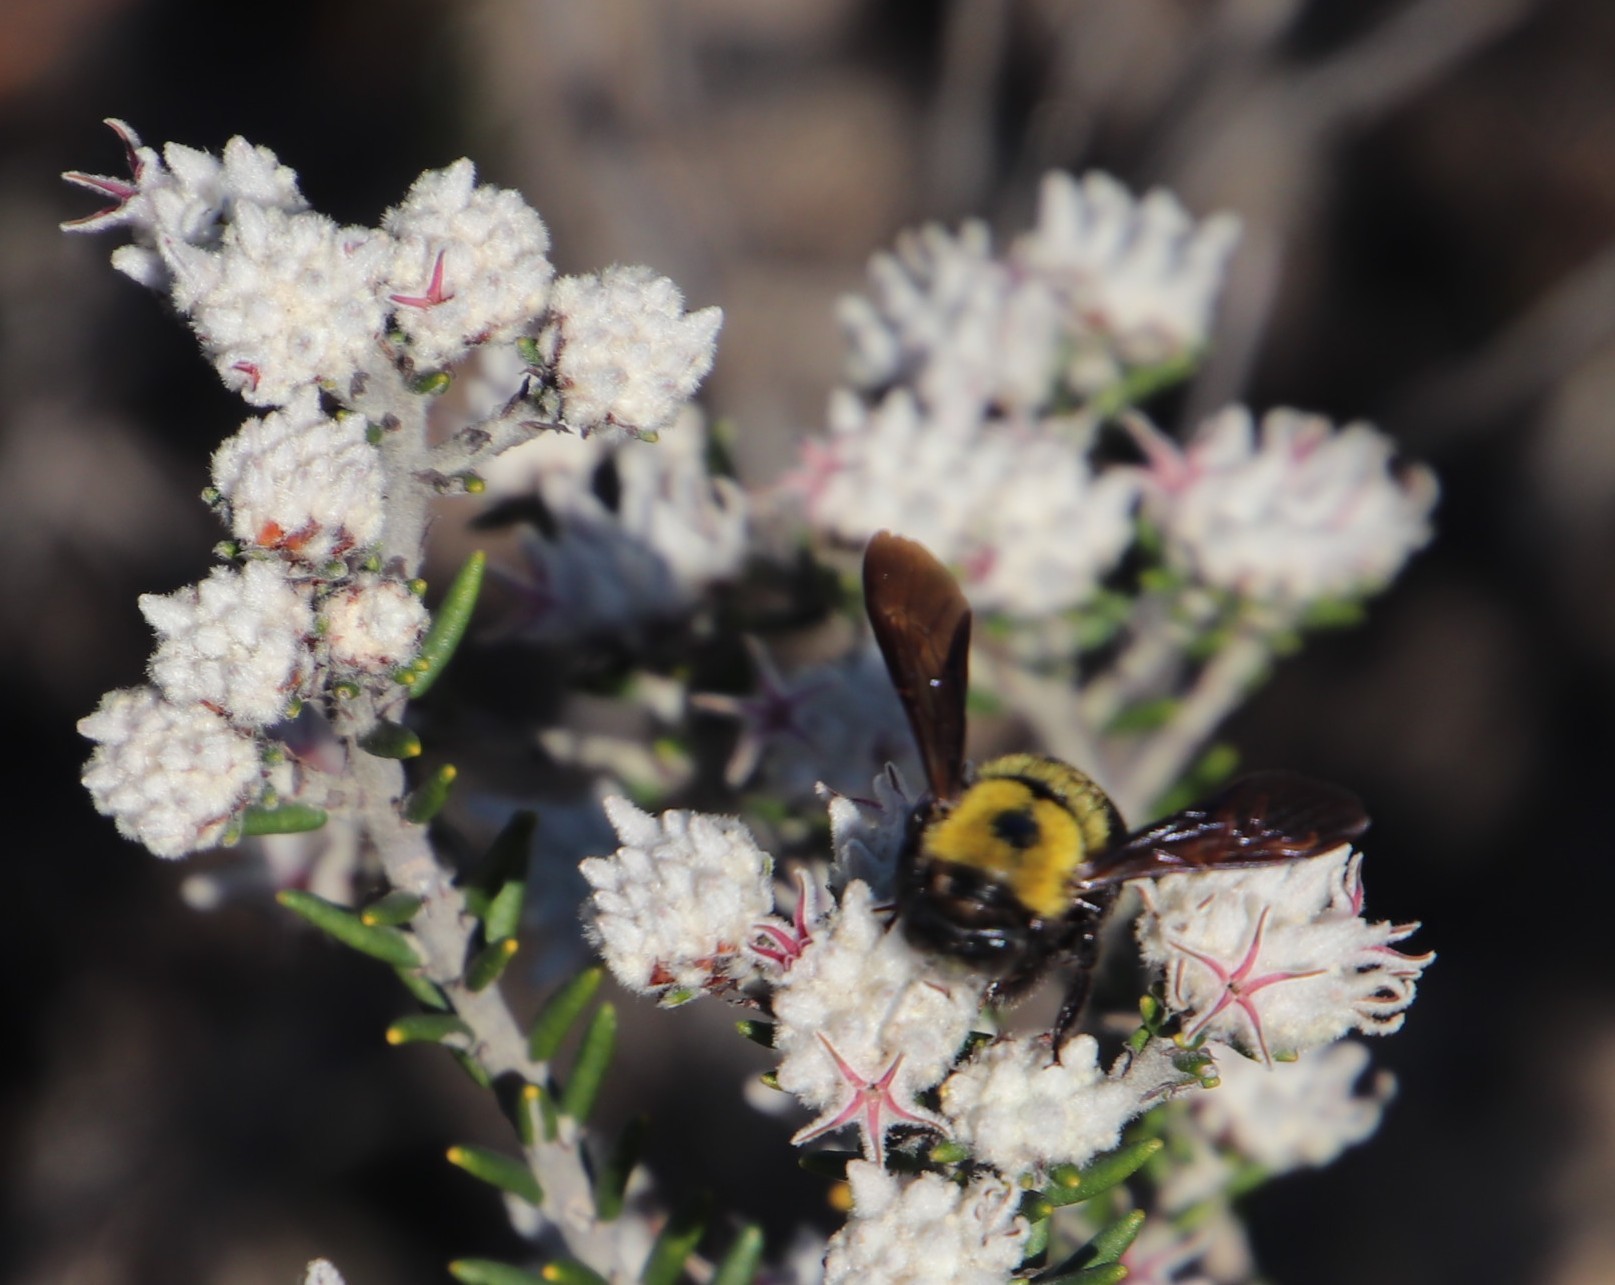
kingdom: Animalia
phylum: Arthropoda
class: Insecta
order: Hymenoptera
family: Apidae
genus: Xylocopa
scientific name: Xylocopa watmoughi
